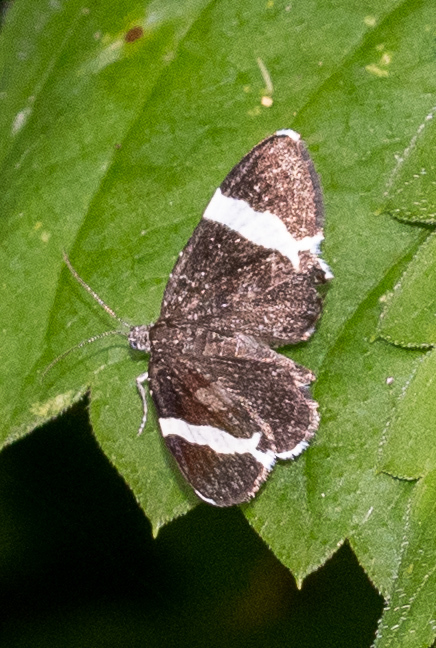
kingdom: Animalia
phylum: Arthropoda
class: Insecta
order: Lepidoptera
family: Geometridae
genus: Trichodezia
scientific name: Trichodezia albovittata
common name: White striped black
